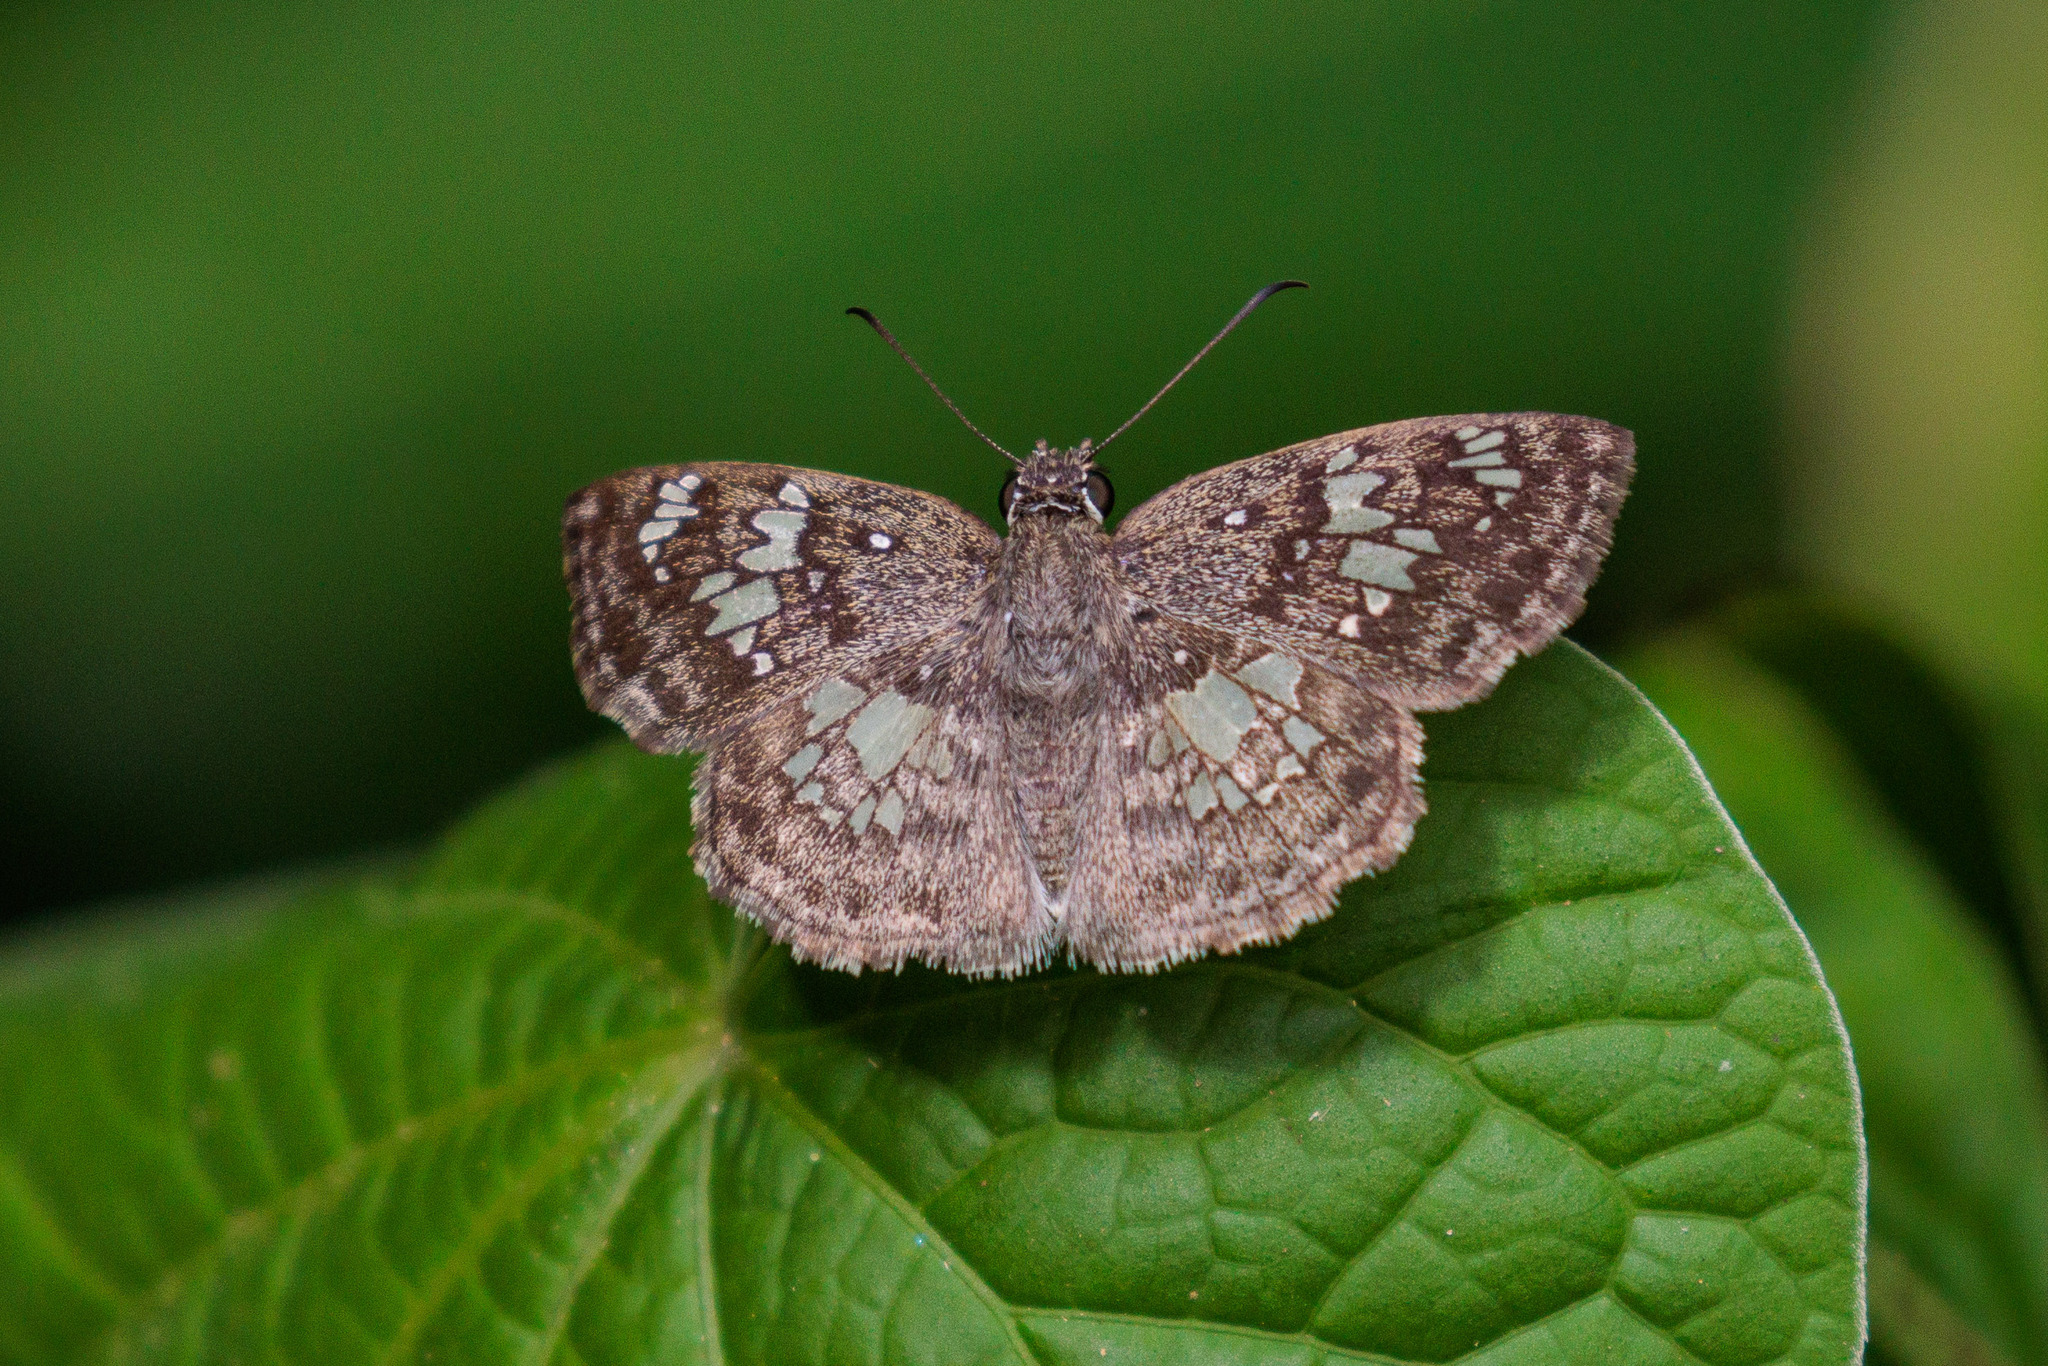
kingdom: Animalia
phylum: Arthropoda
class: Insecta
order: Lepidoptera
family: Hesperiidae
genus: Xenophanes
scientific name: Xenophanes tryxus
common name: Glassy-winged skipper
